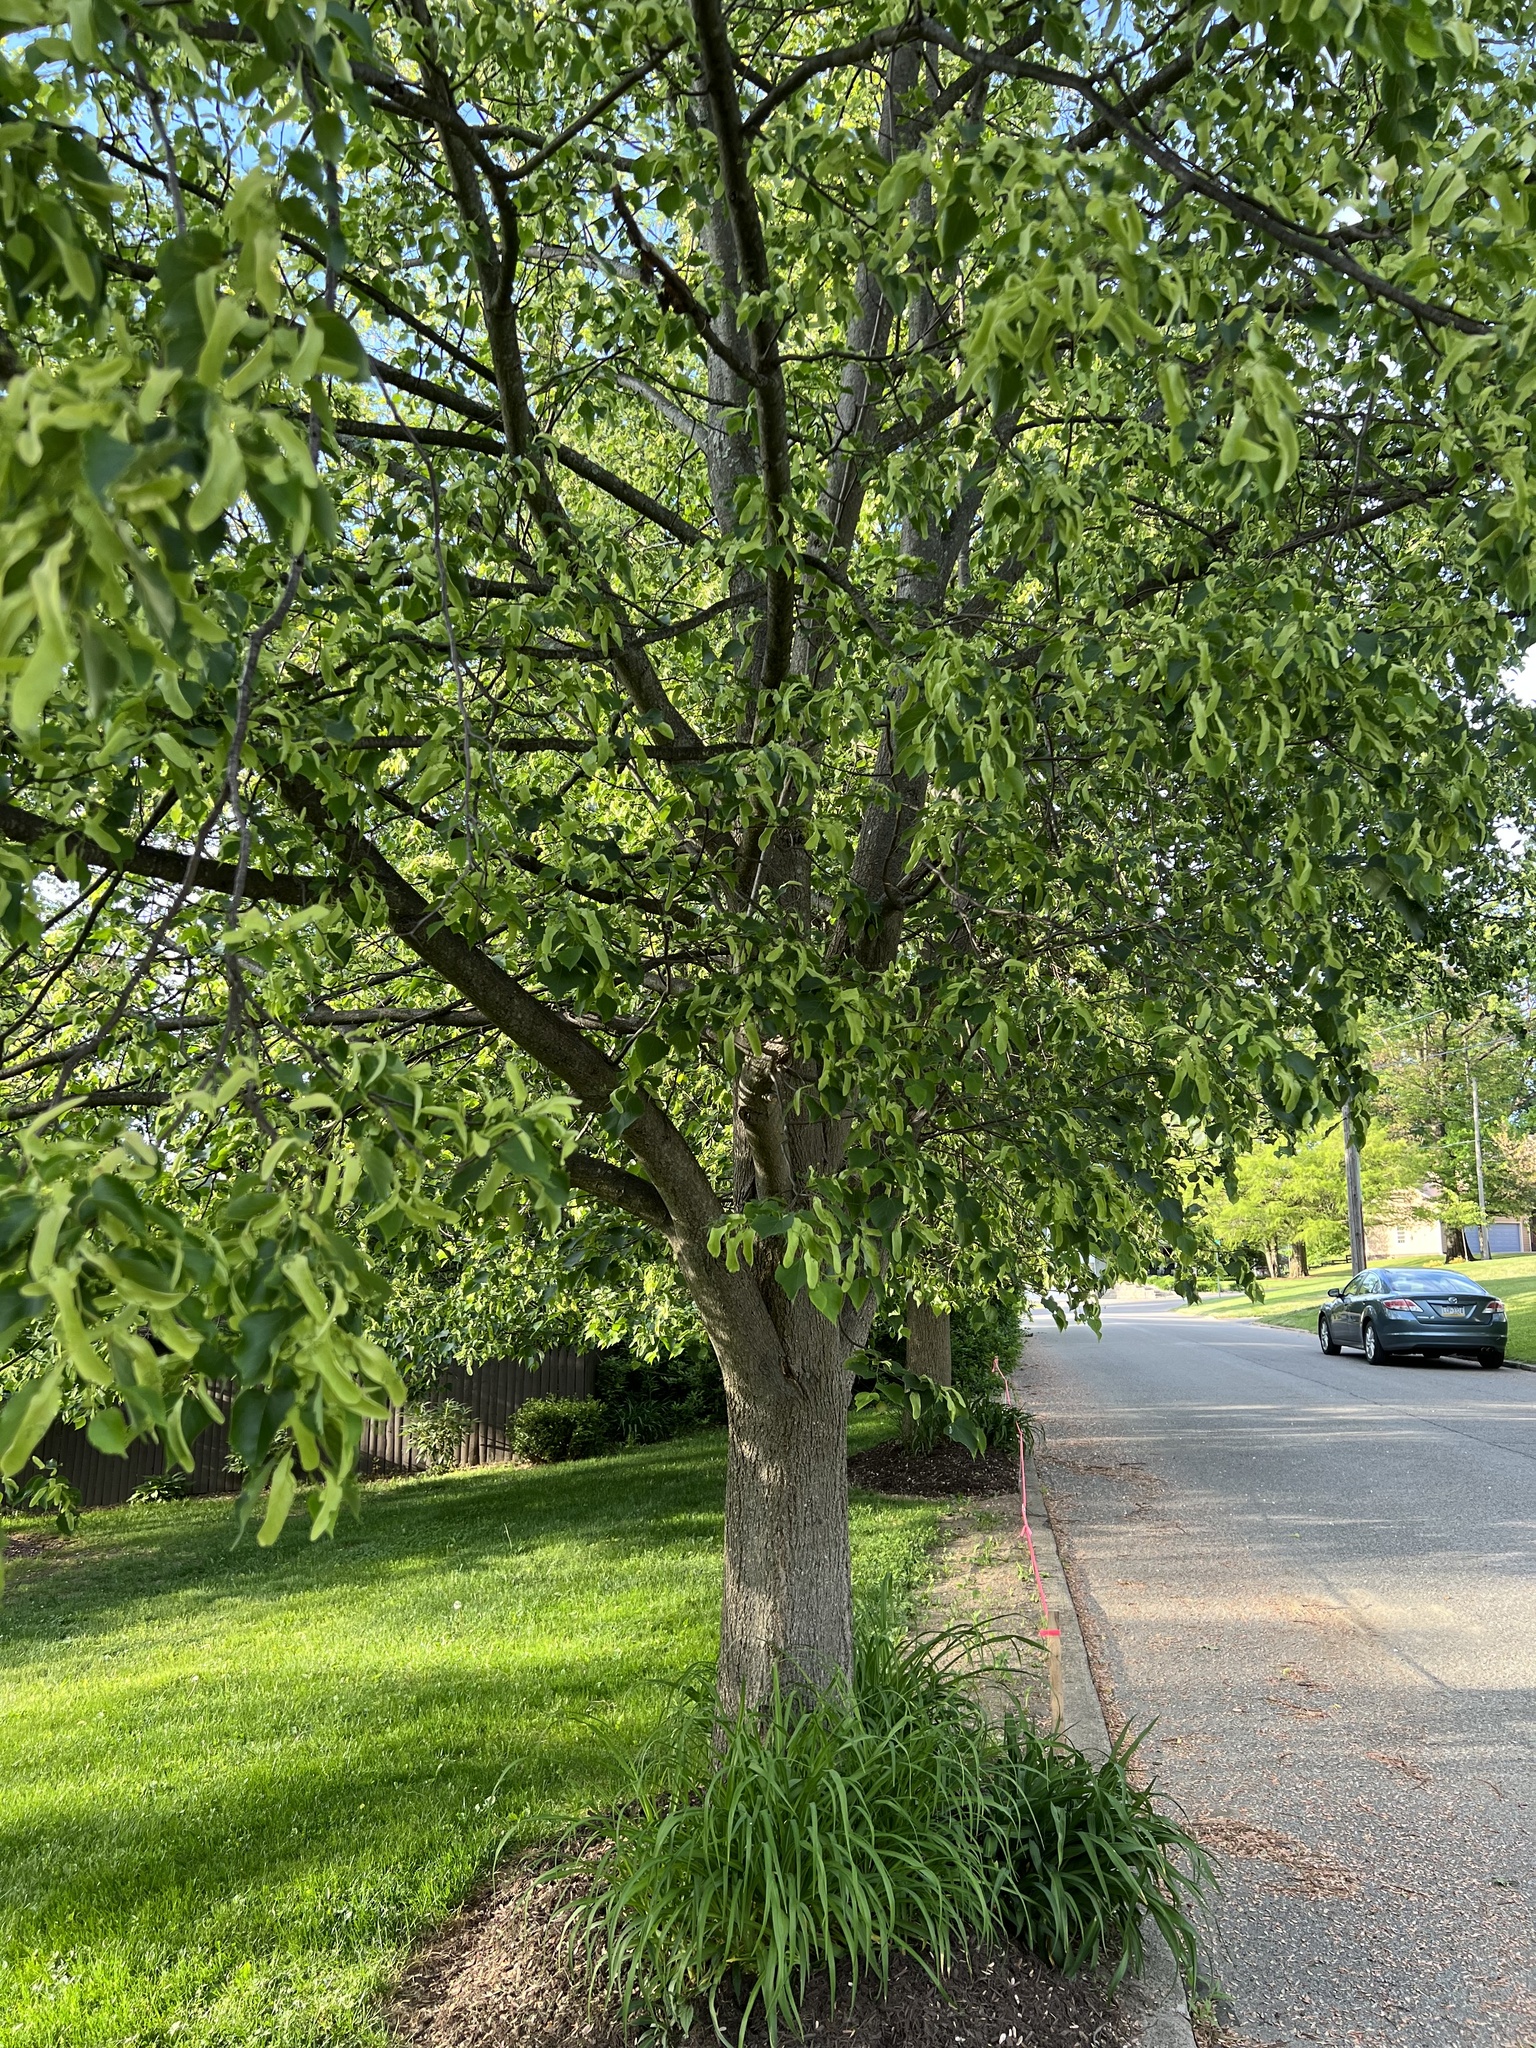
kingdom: Plantae
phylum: Tracheophyta
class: Magnoliopsida
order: Malvales
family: Malvaceae
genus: Tilia
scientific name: Tilia cordata
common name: Small-leaved lime
